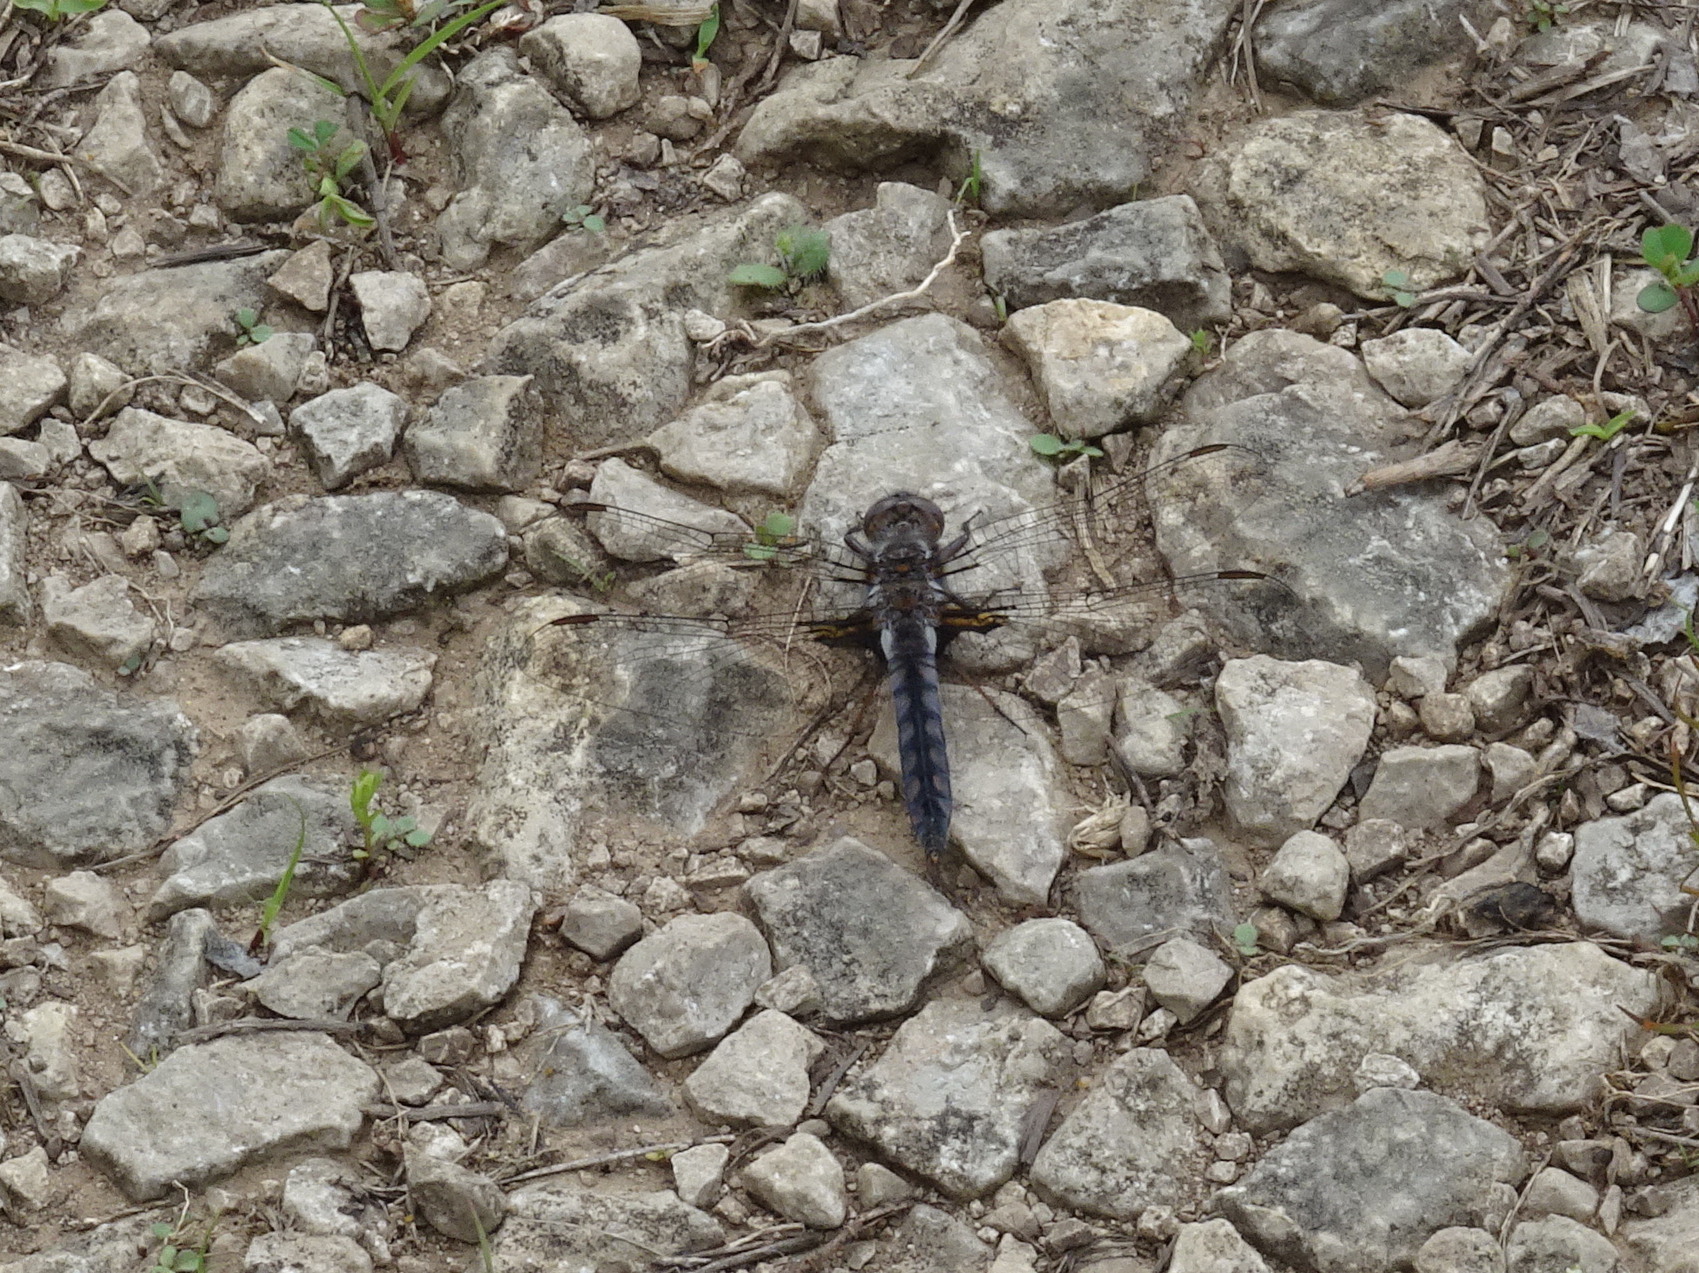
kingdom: Animalia
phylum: Arthropoda
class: Insecta
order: Odonata
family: Libellulidae
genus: Ladona
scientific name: Ladona deplanata
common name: Blue corporal
